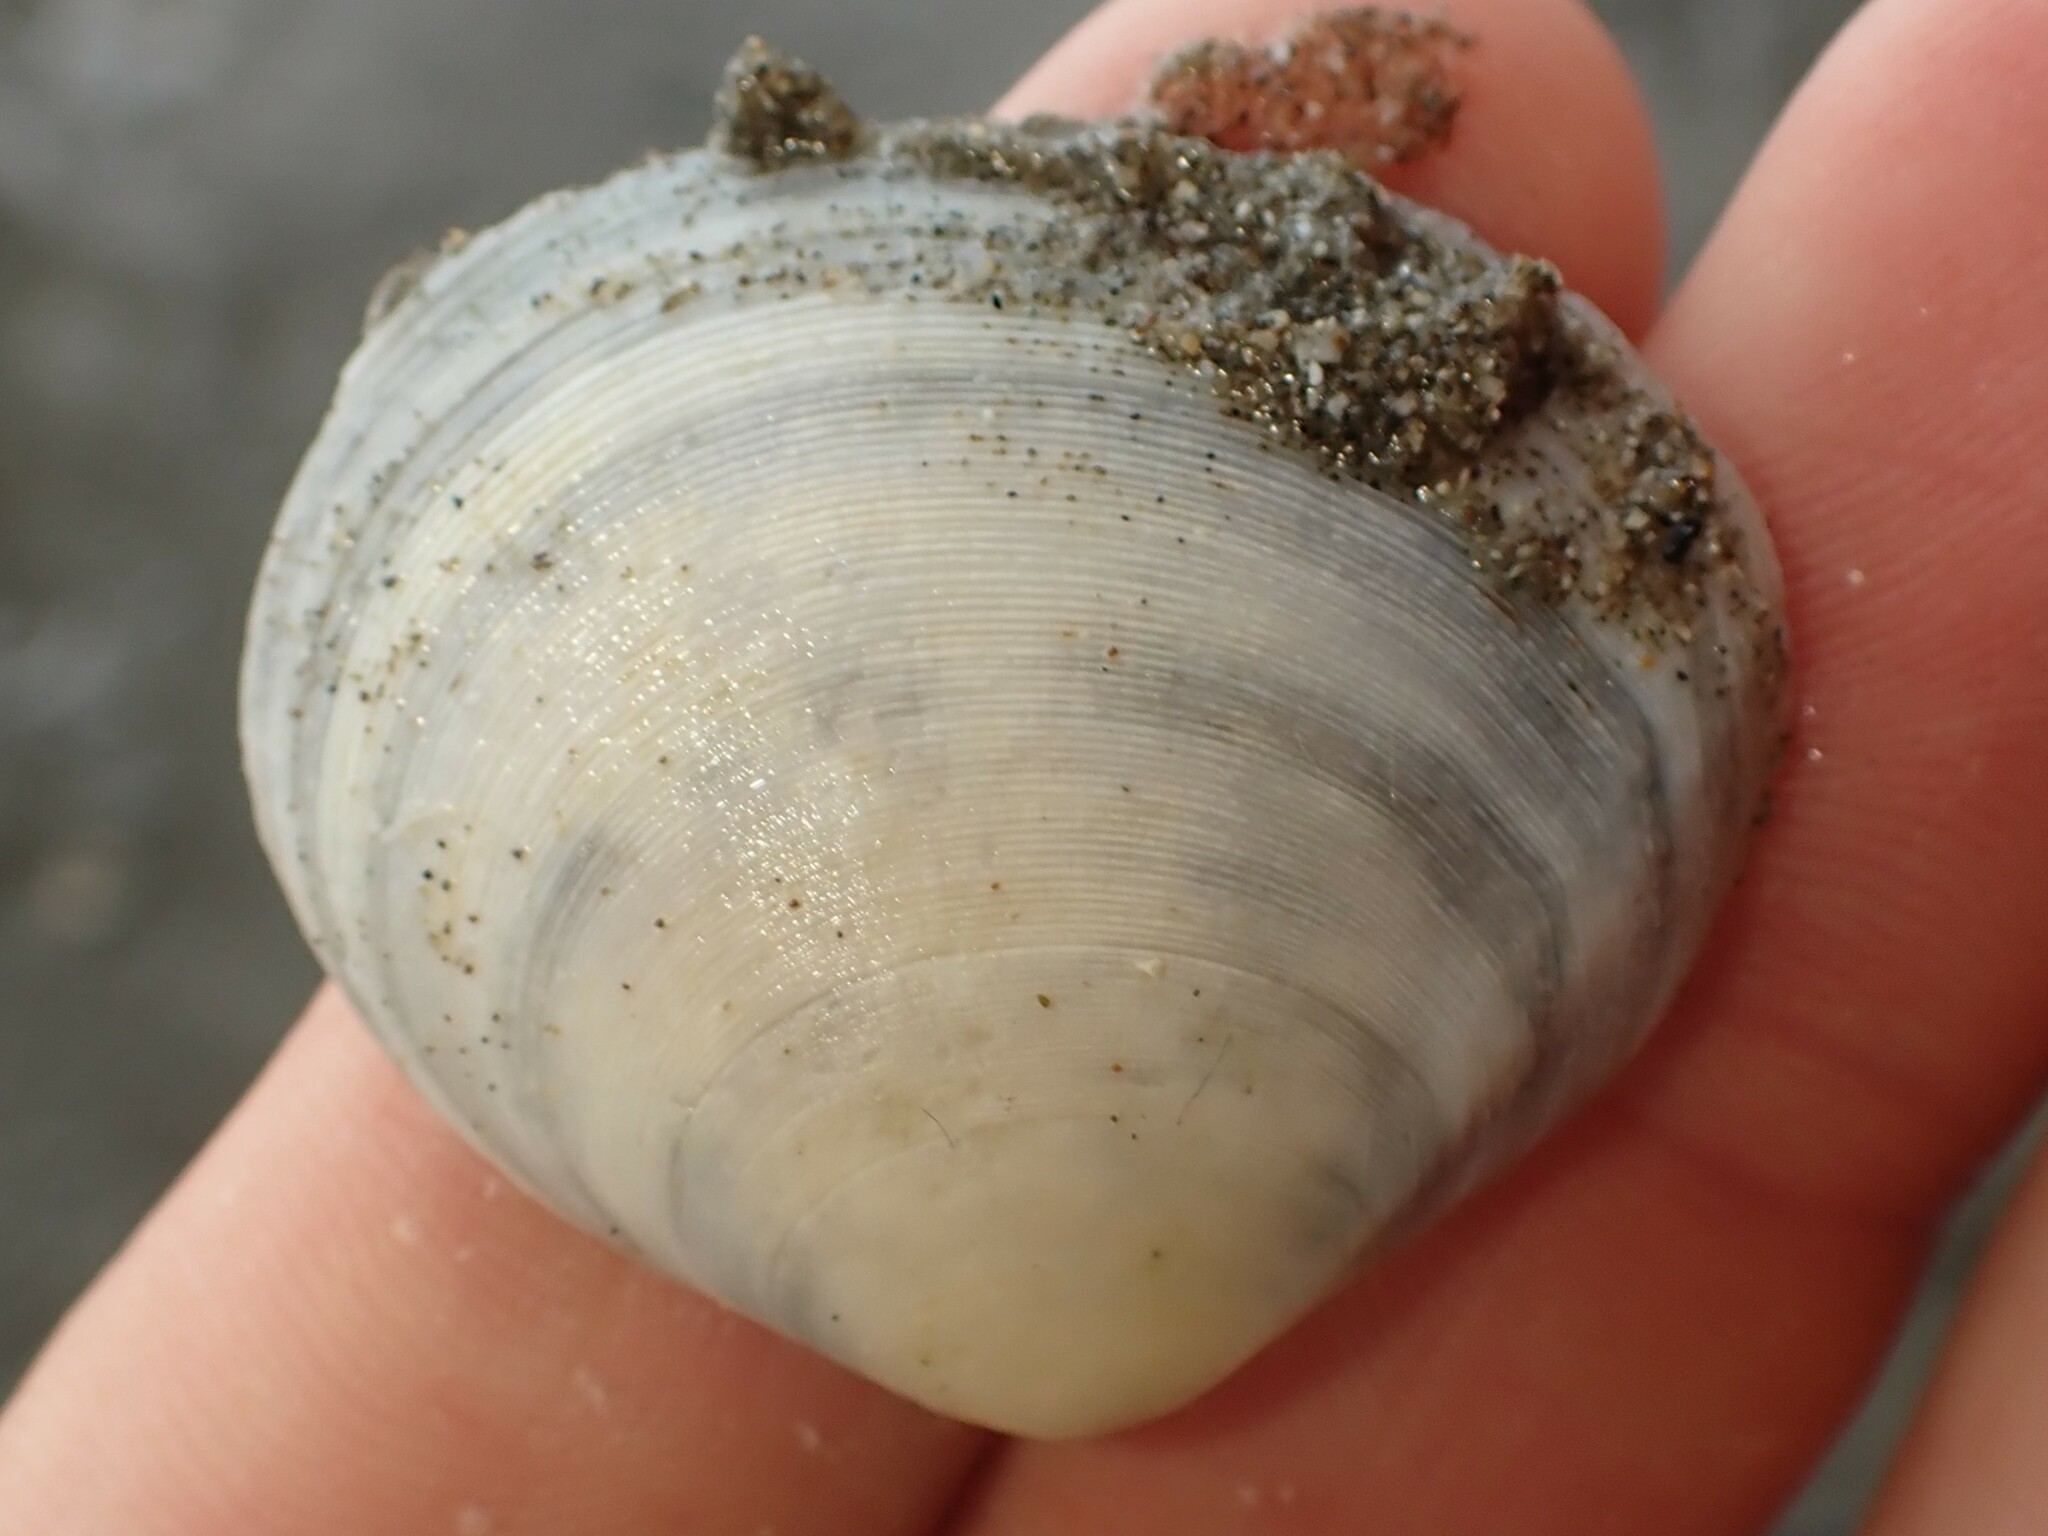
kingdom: Animalia
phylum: Mollusca
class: Bivalvia
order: Cardiida
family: Tellinidae
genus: Pseudarcopagia
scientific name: Pseudarcopagia disculus
